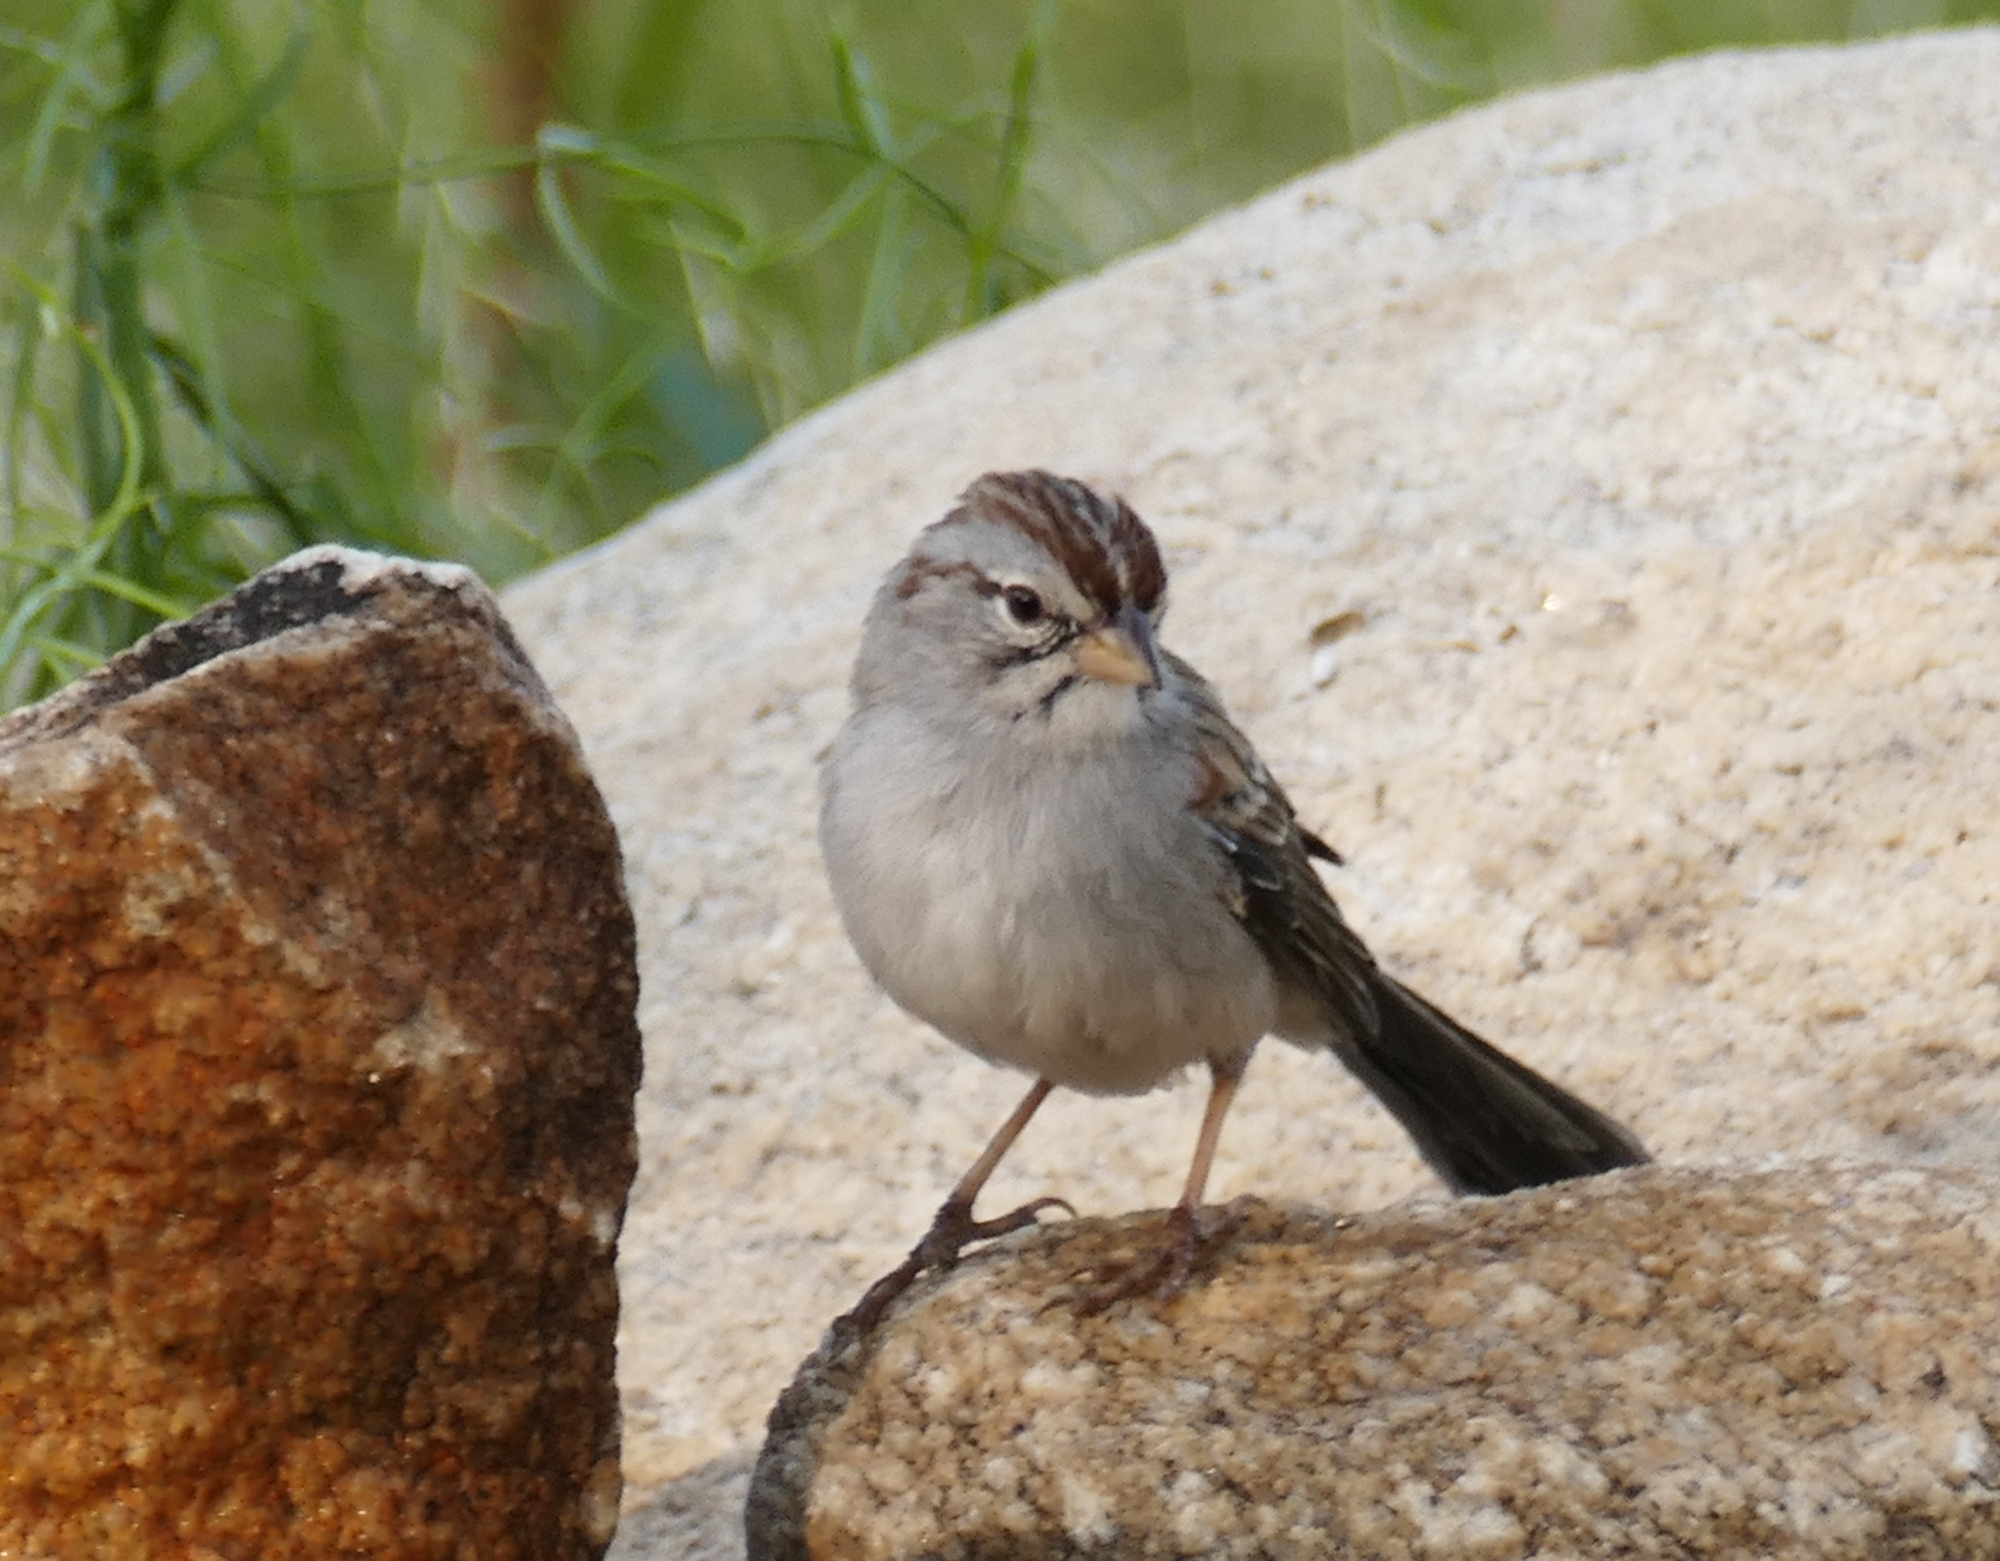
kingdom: Animalia
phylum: Chordata
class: Aves
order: Passeriformes
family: Passerellidae
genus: Peucaea
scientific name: Peucaea carpalis
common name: Rufous-winged sparrow
